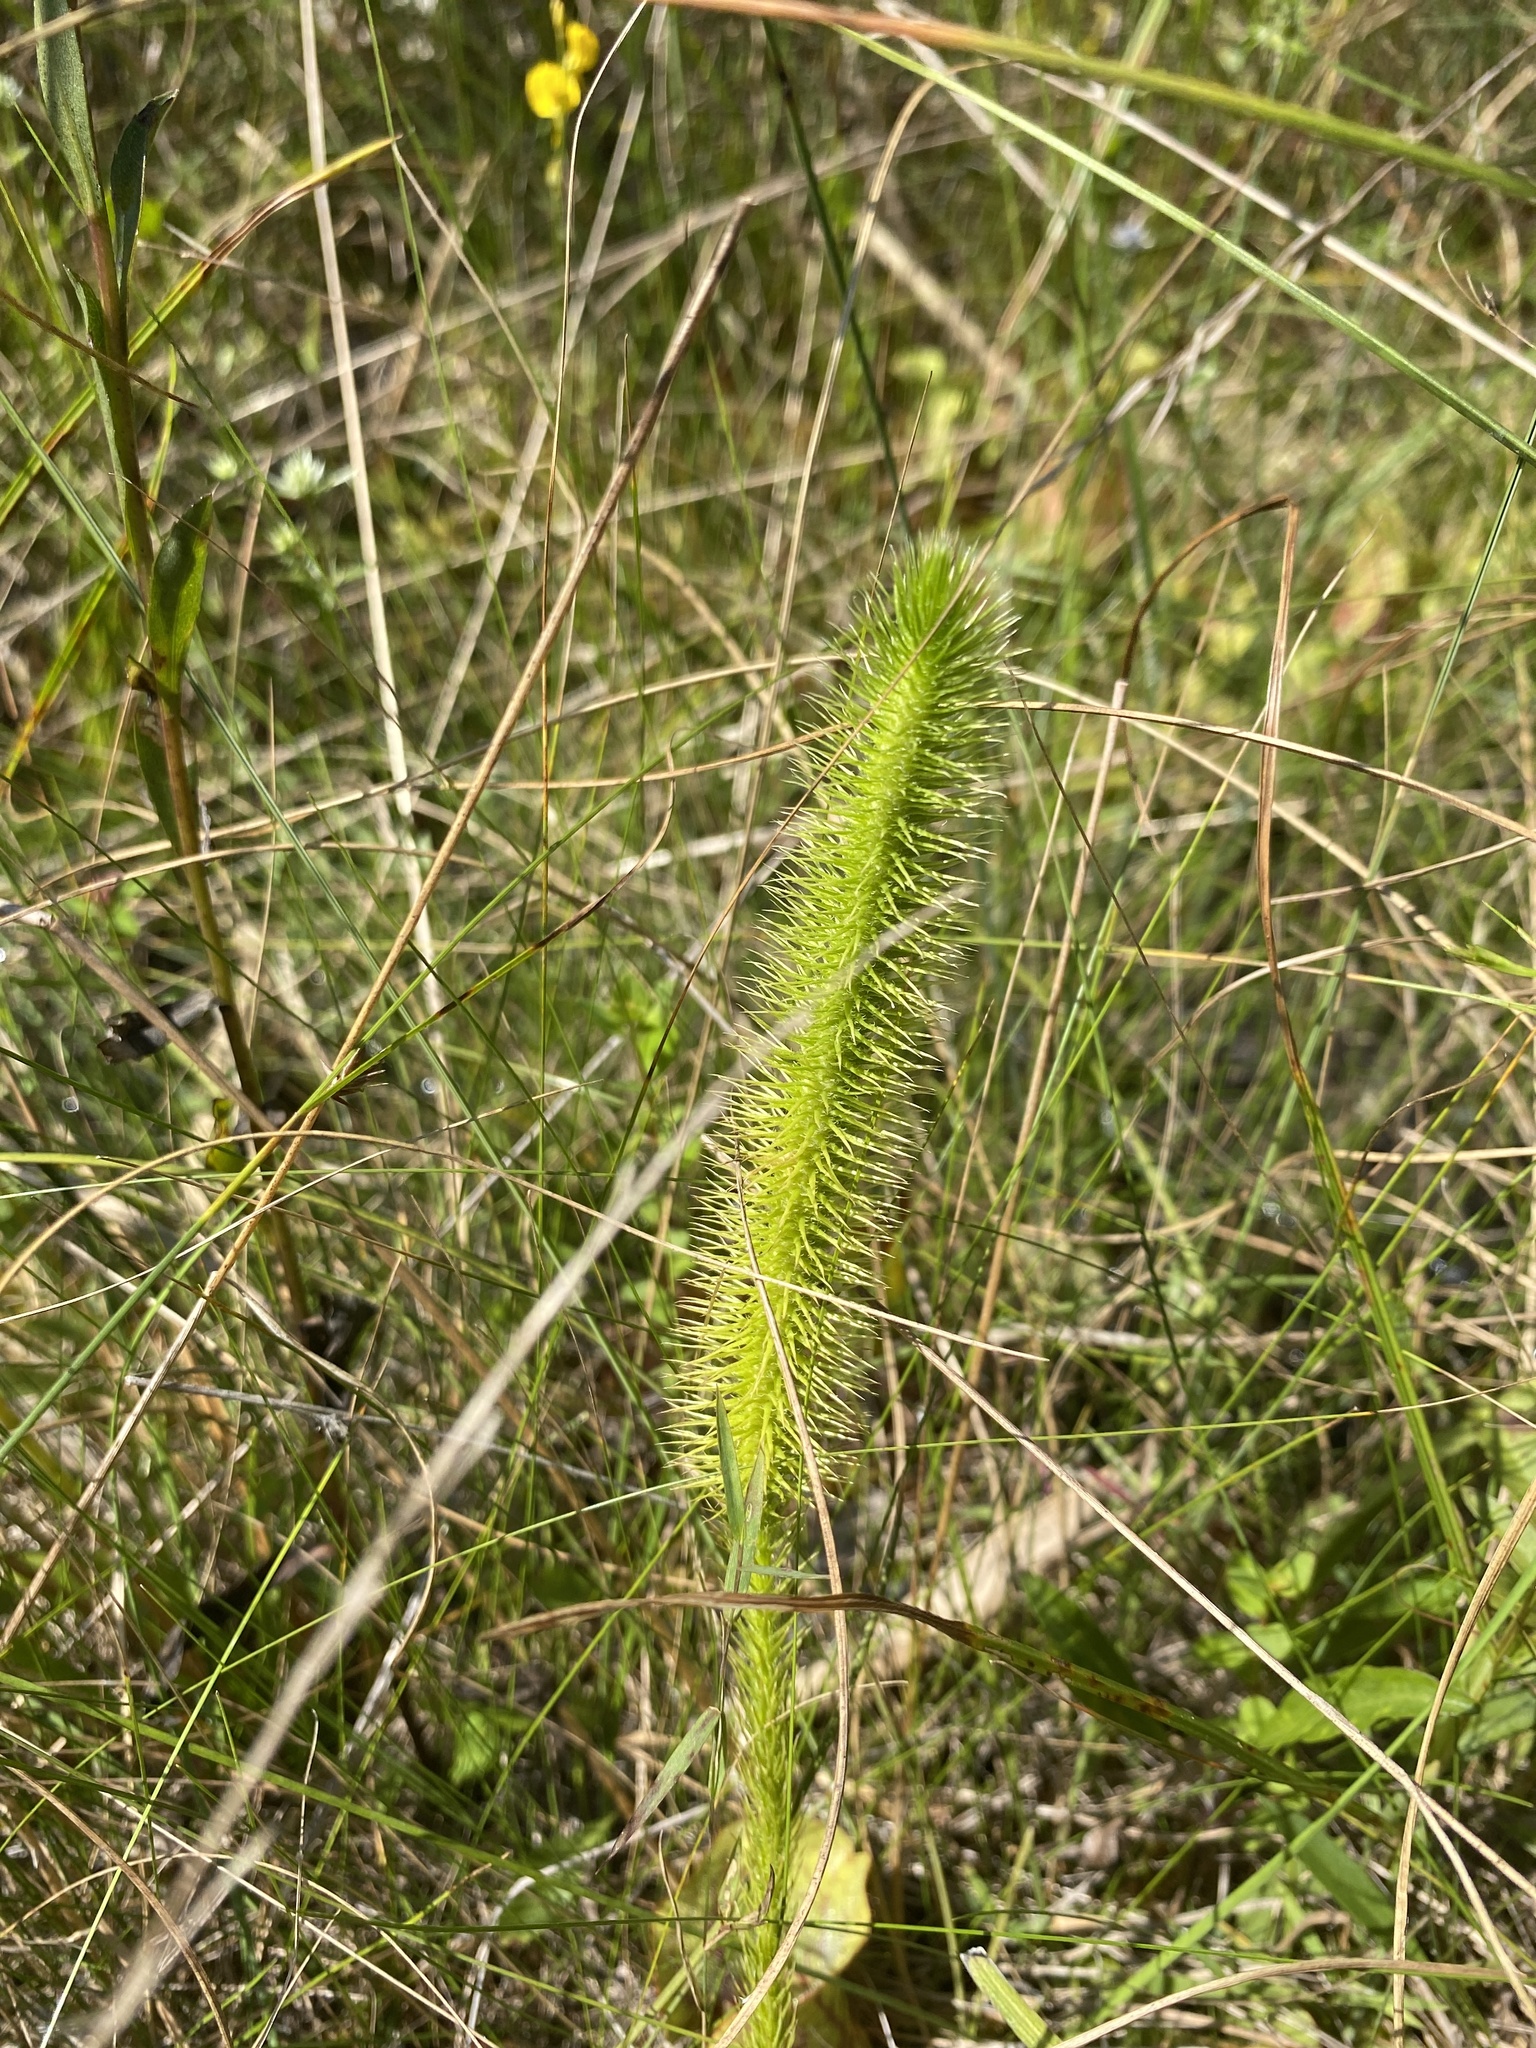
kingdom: Plantae
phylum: Tracheophyta
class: Lycopodiopsida
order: Lycopodiales
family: Lycopodiaceae
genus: Lycopodiella
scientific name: Lycopodiella alopecuroides
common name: Foxtail clubmoss
